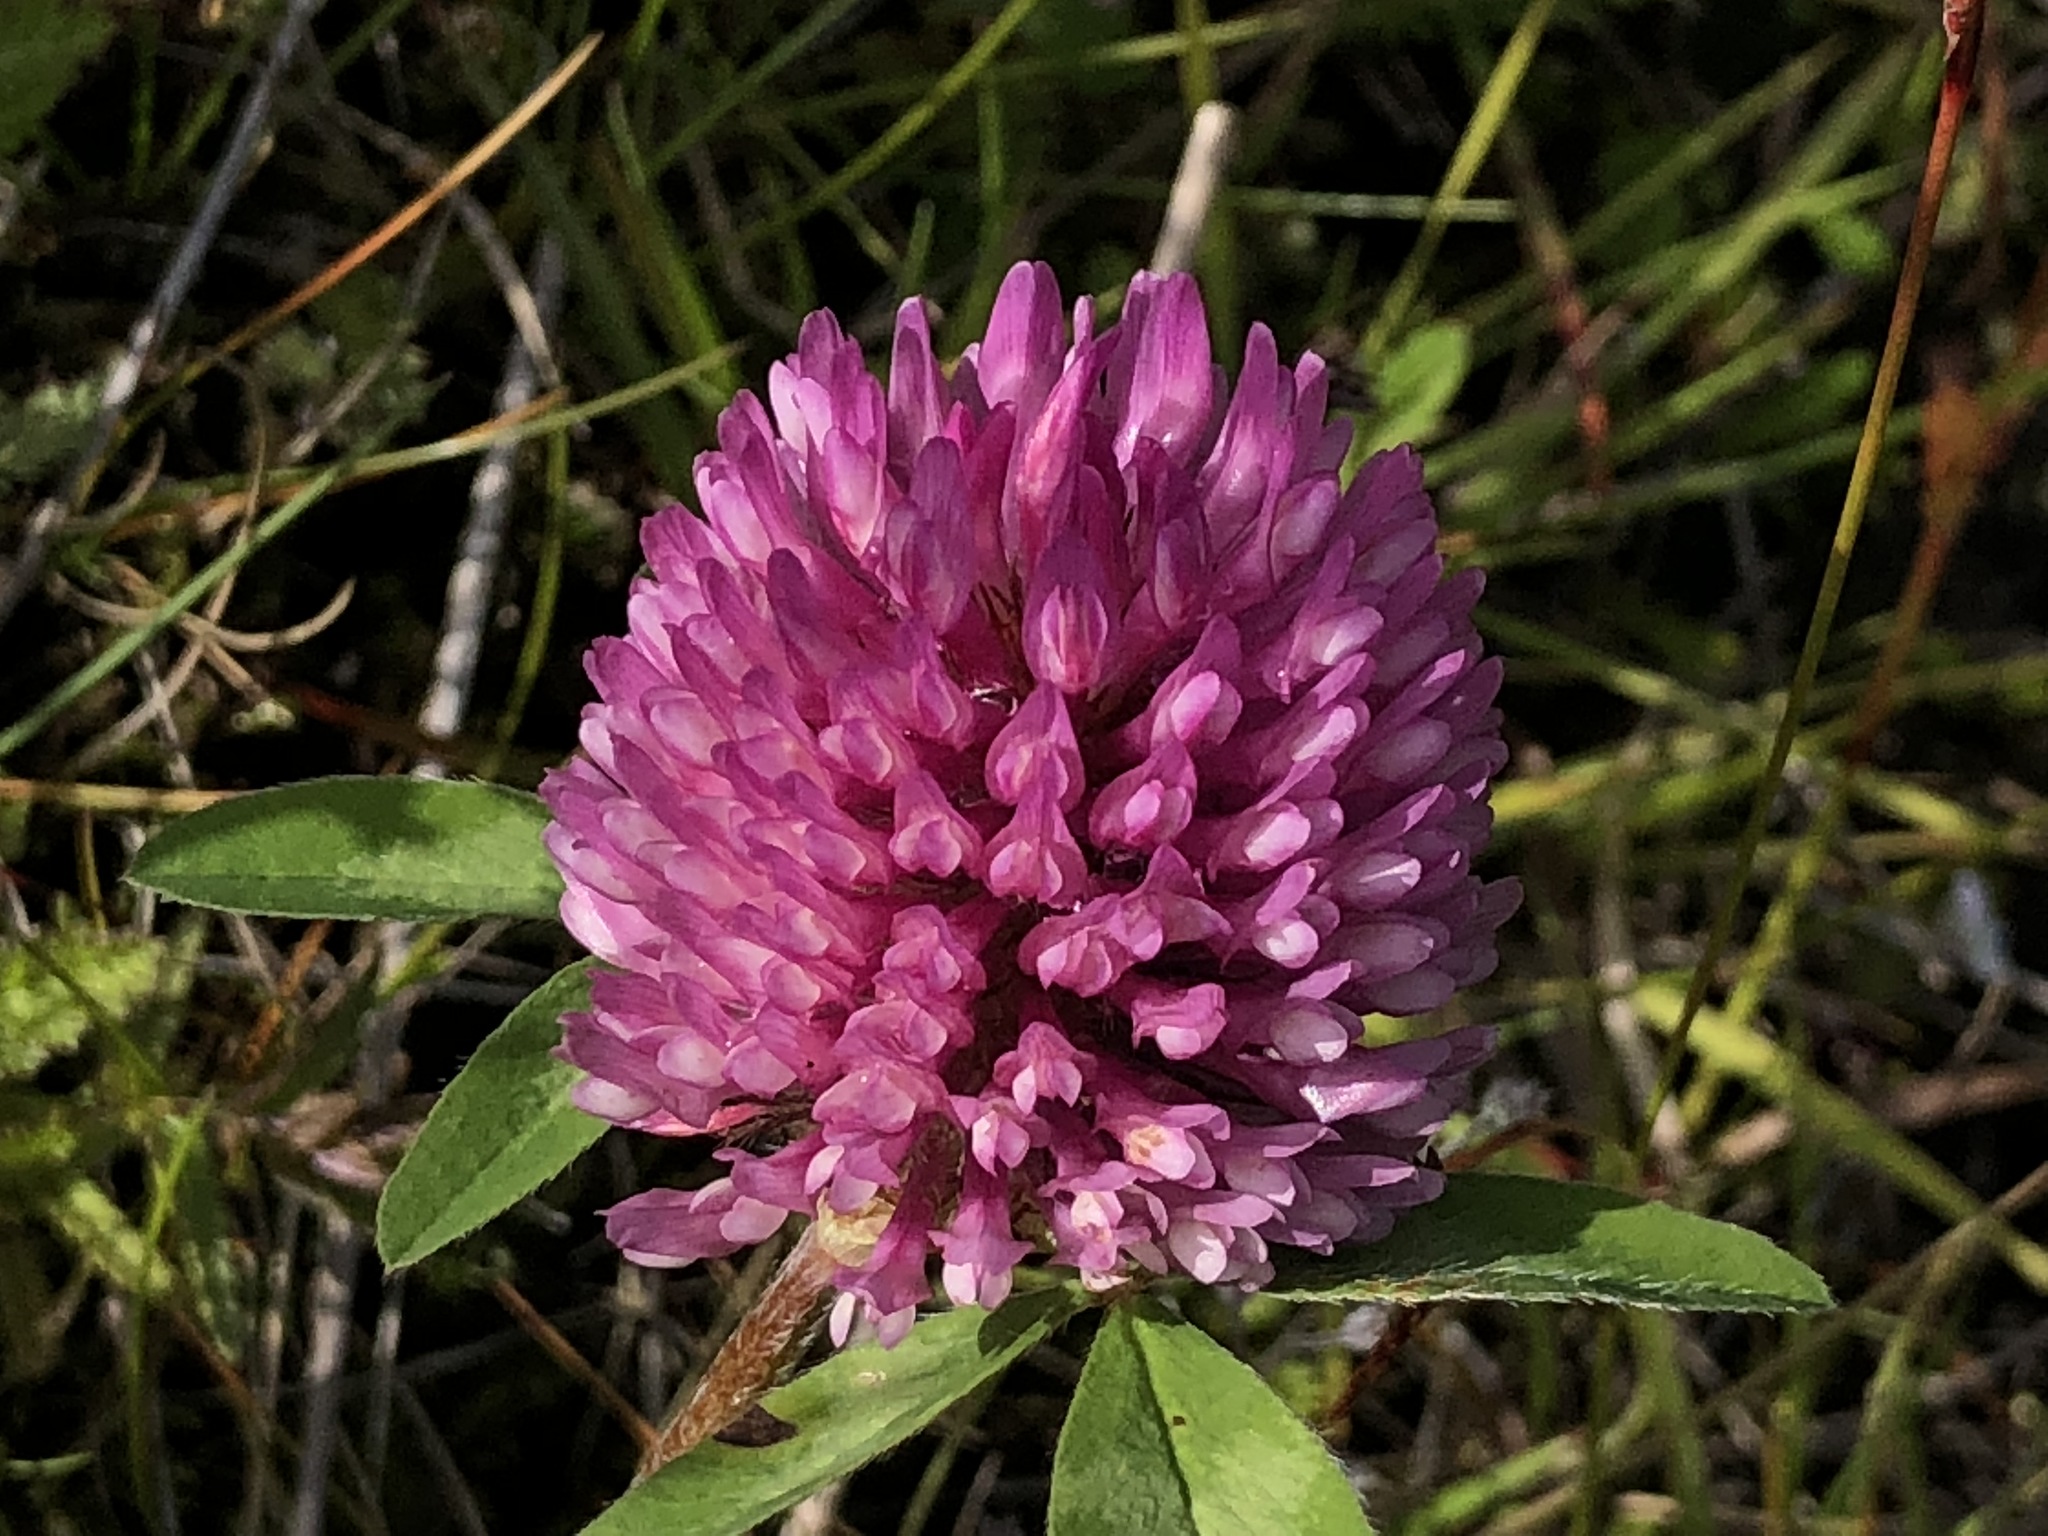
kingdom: Plantae
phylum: Tracheophyta
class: Magnoliopsida
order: Fabales
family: Fabaceae
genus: Trifolium
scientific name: Trifolium pratense
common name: Red clover
